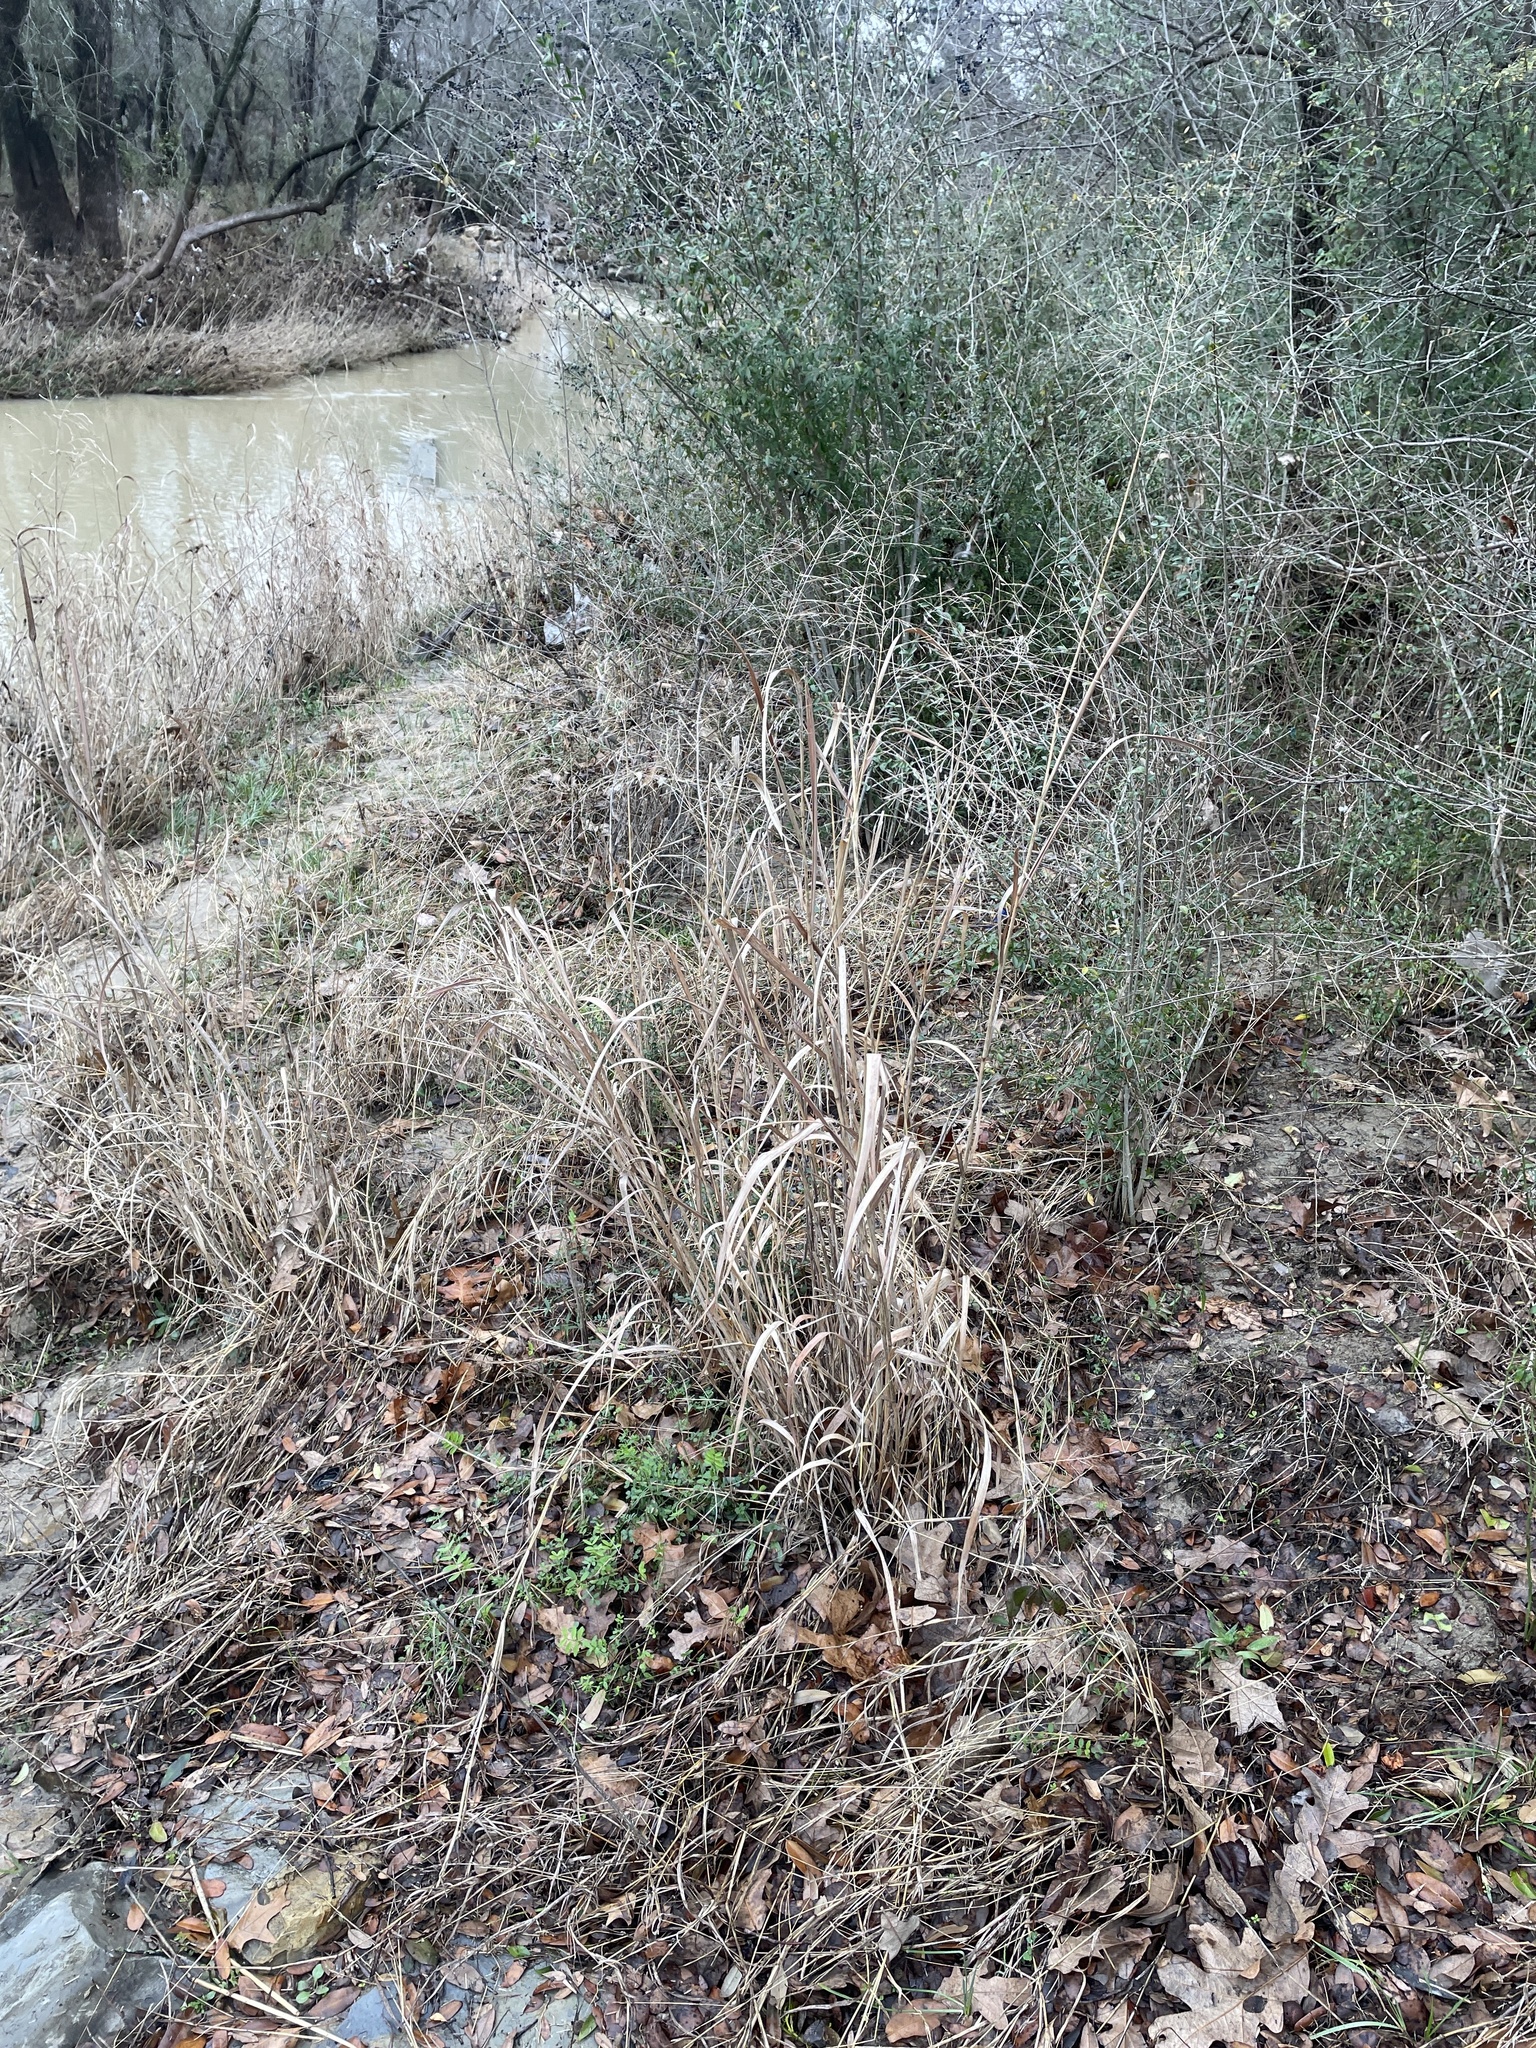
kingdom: Plantae
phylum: Tracheophyta
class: Liliopsida
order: Poales
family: Poaceae
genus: Panicum
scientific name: Panicum virgatum
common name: Switchgrass
